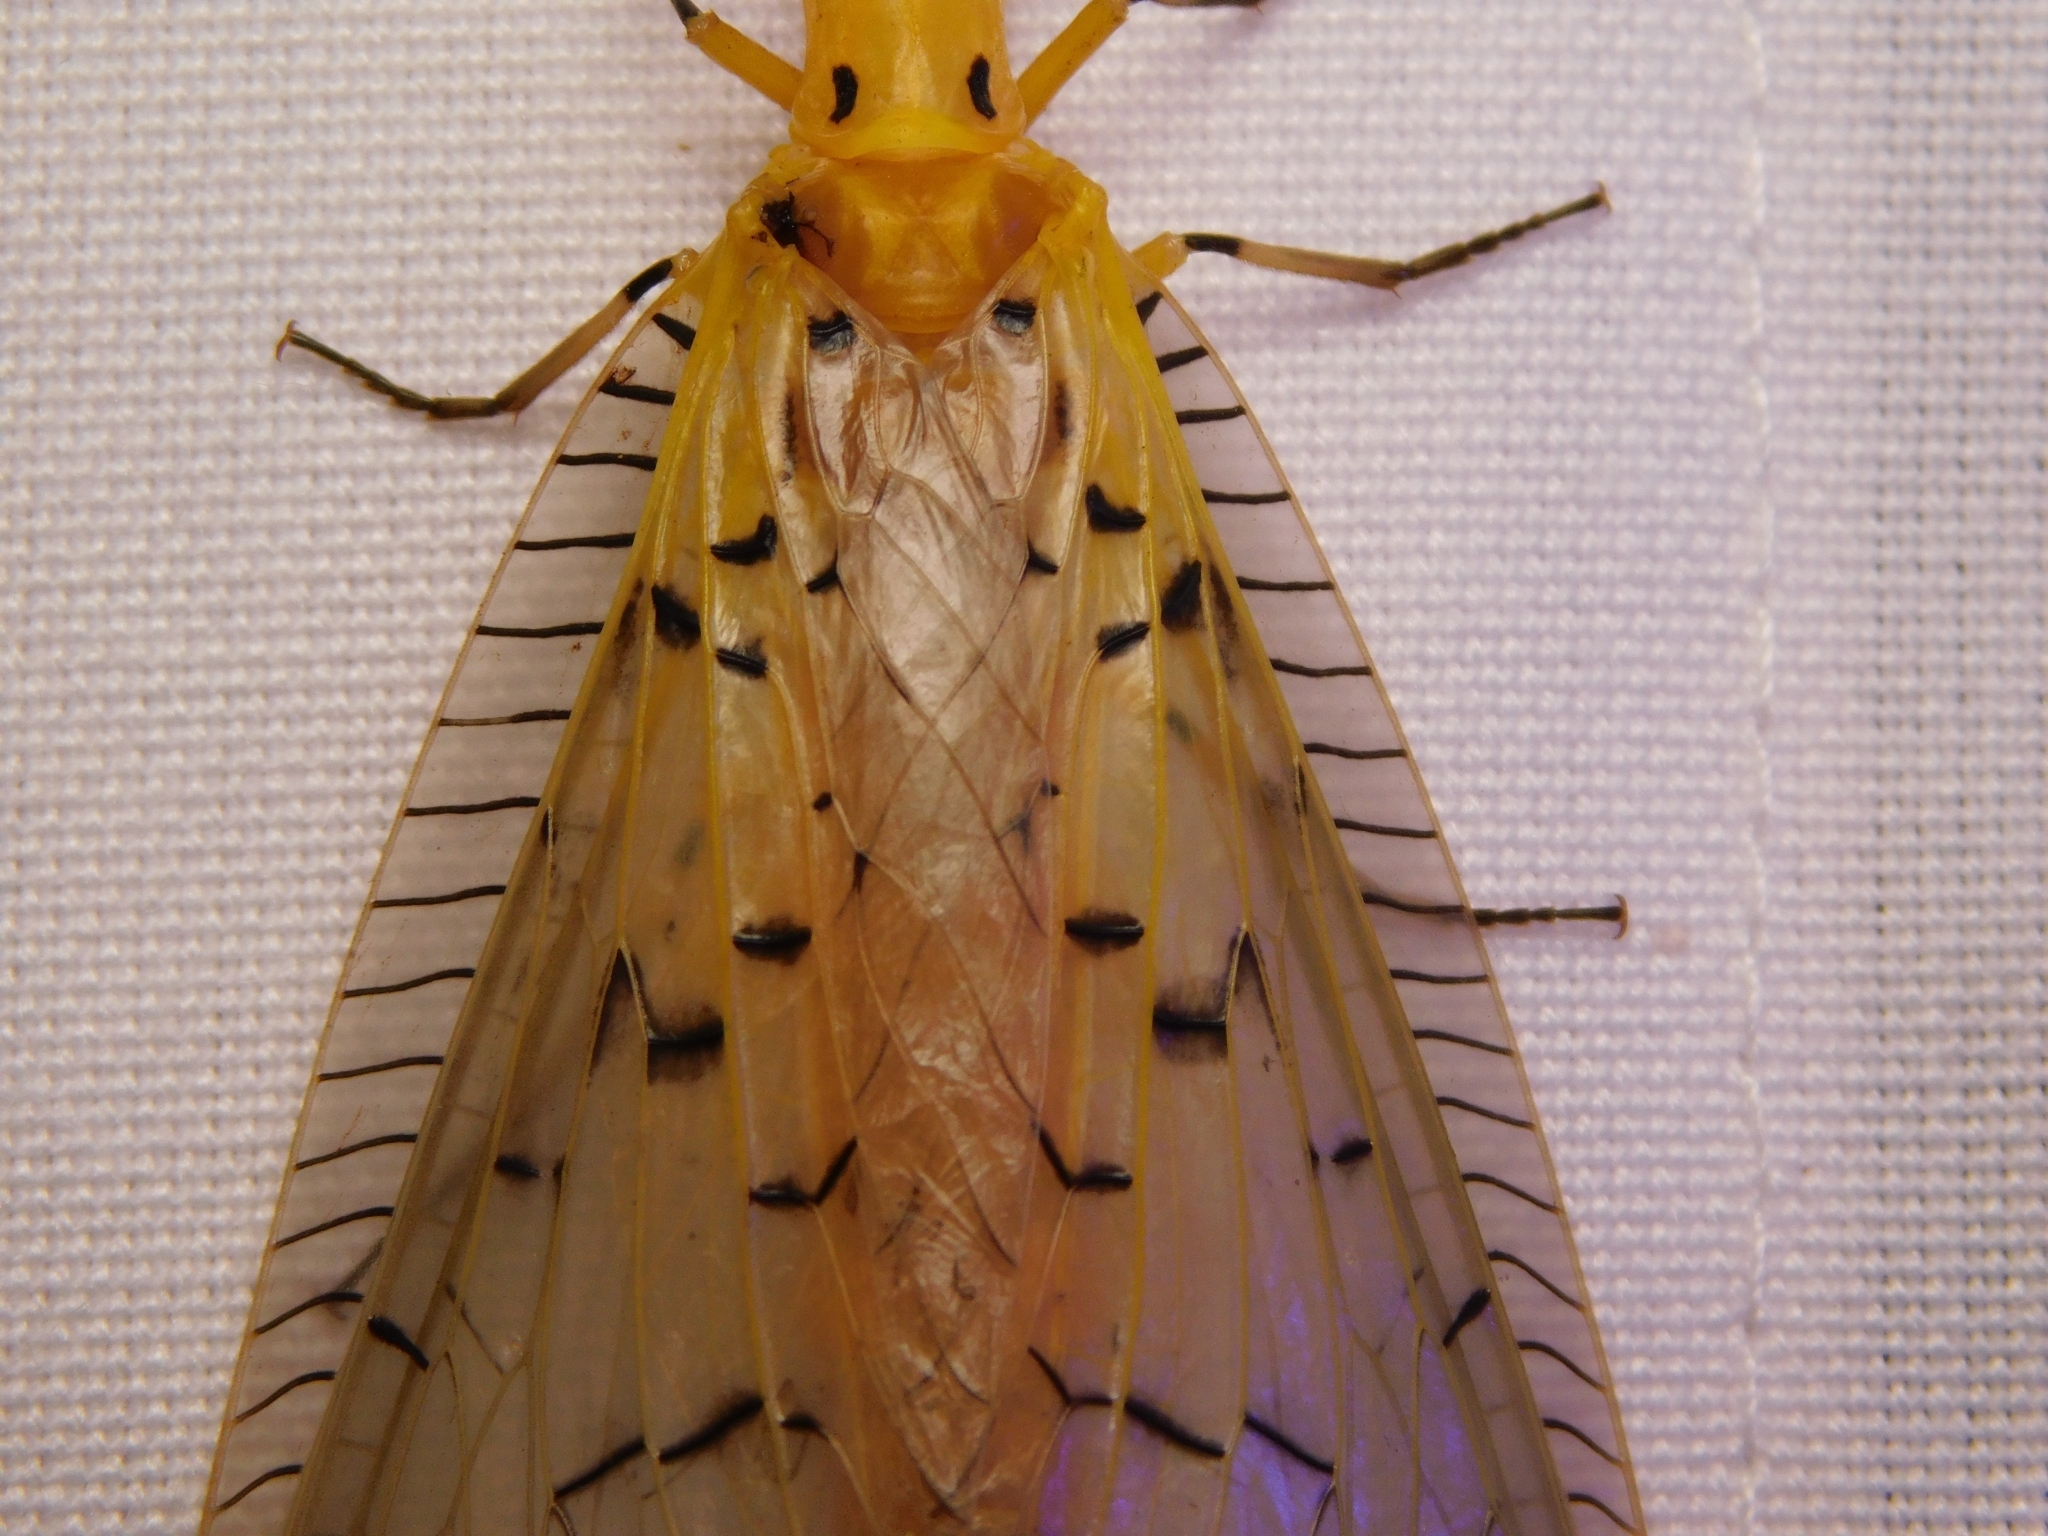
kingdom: Animalia
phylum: Arthropoda
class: Insecta
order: Megaloptera
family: Corydalidae
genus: Nevromus
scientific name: Nevromus austroindicus
